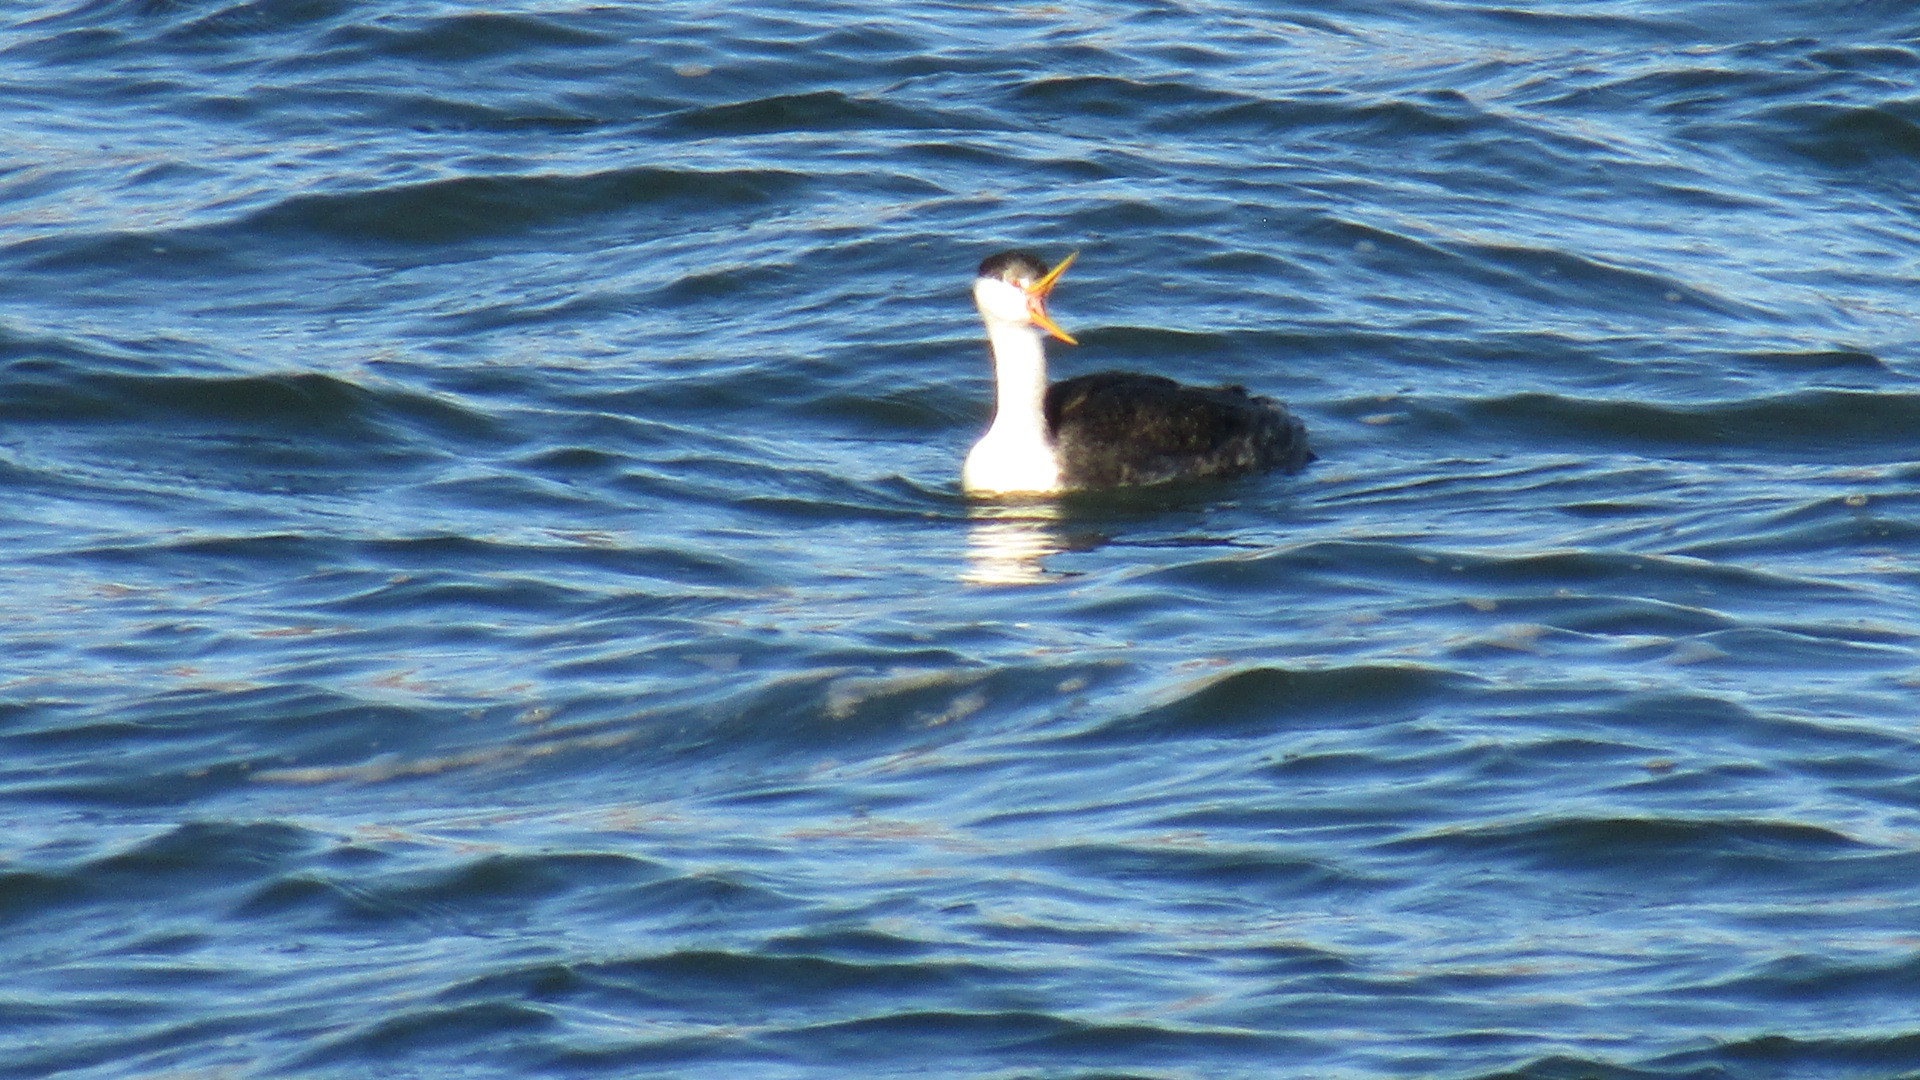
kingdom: Animalia
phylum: Chordata
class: Aves
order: Podicipediformes
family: Podicipedidae
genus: Aechmophorus
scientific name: Aechmophorus clarkii
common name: Clark's grebe
